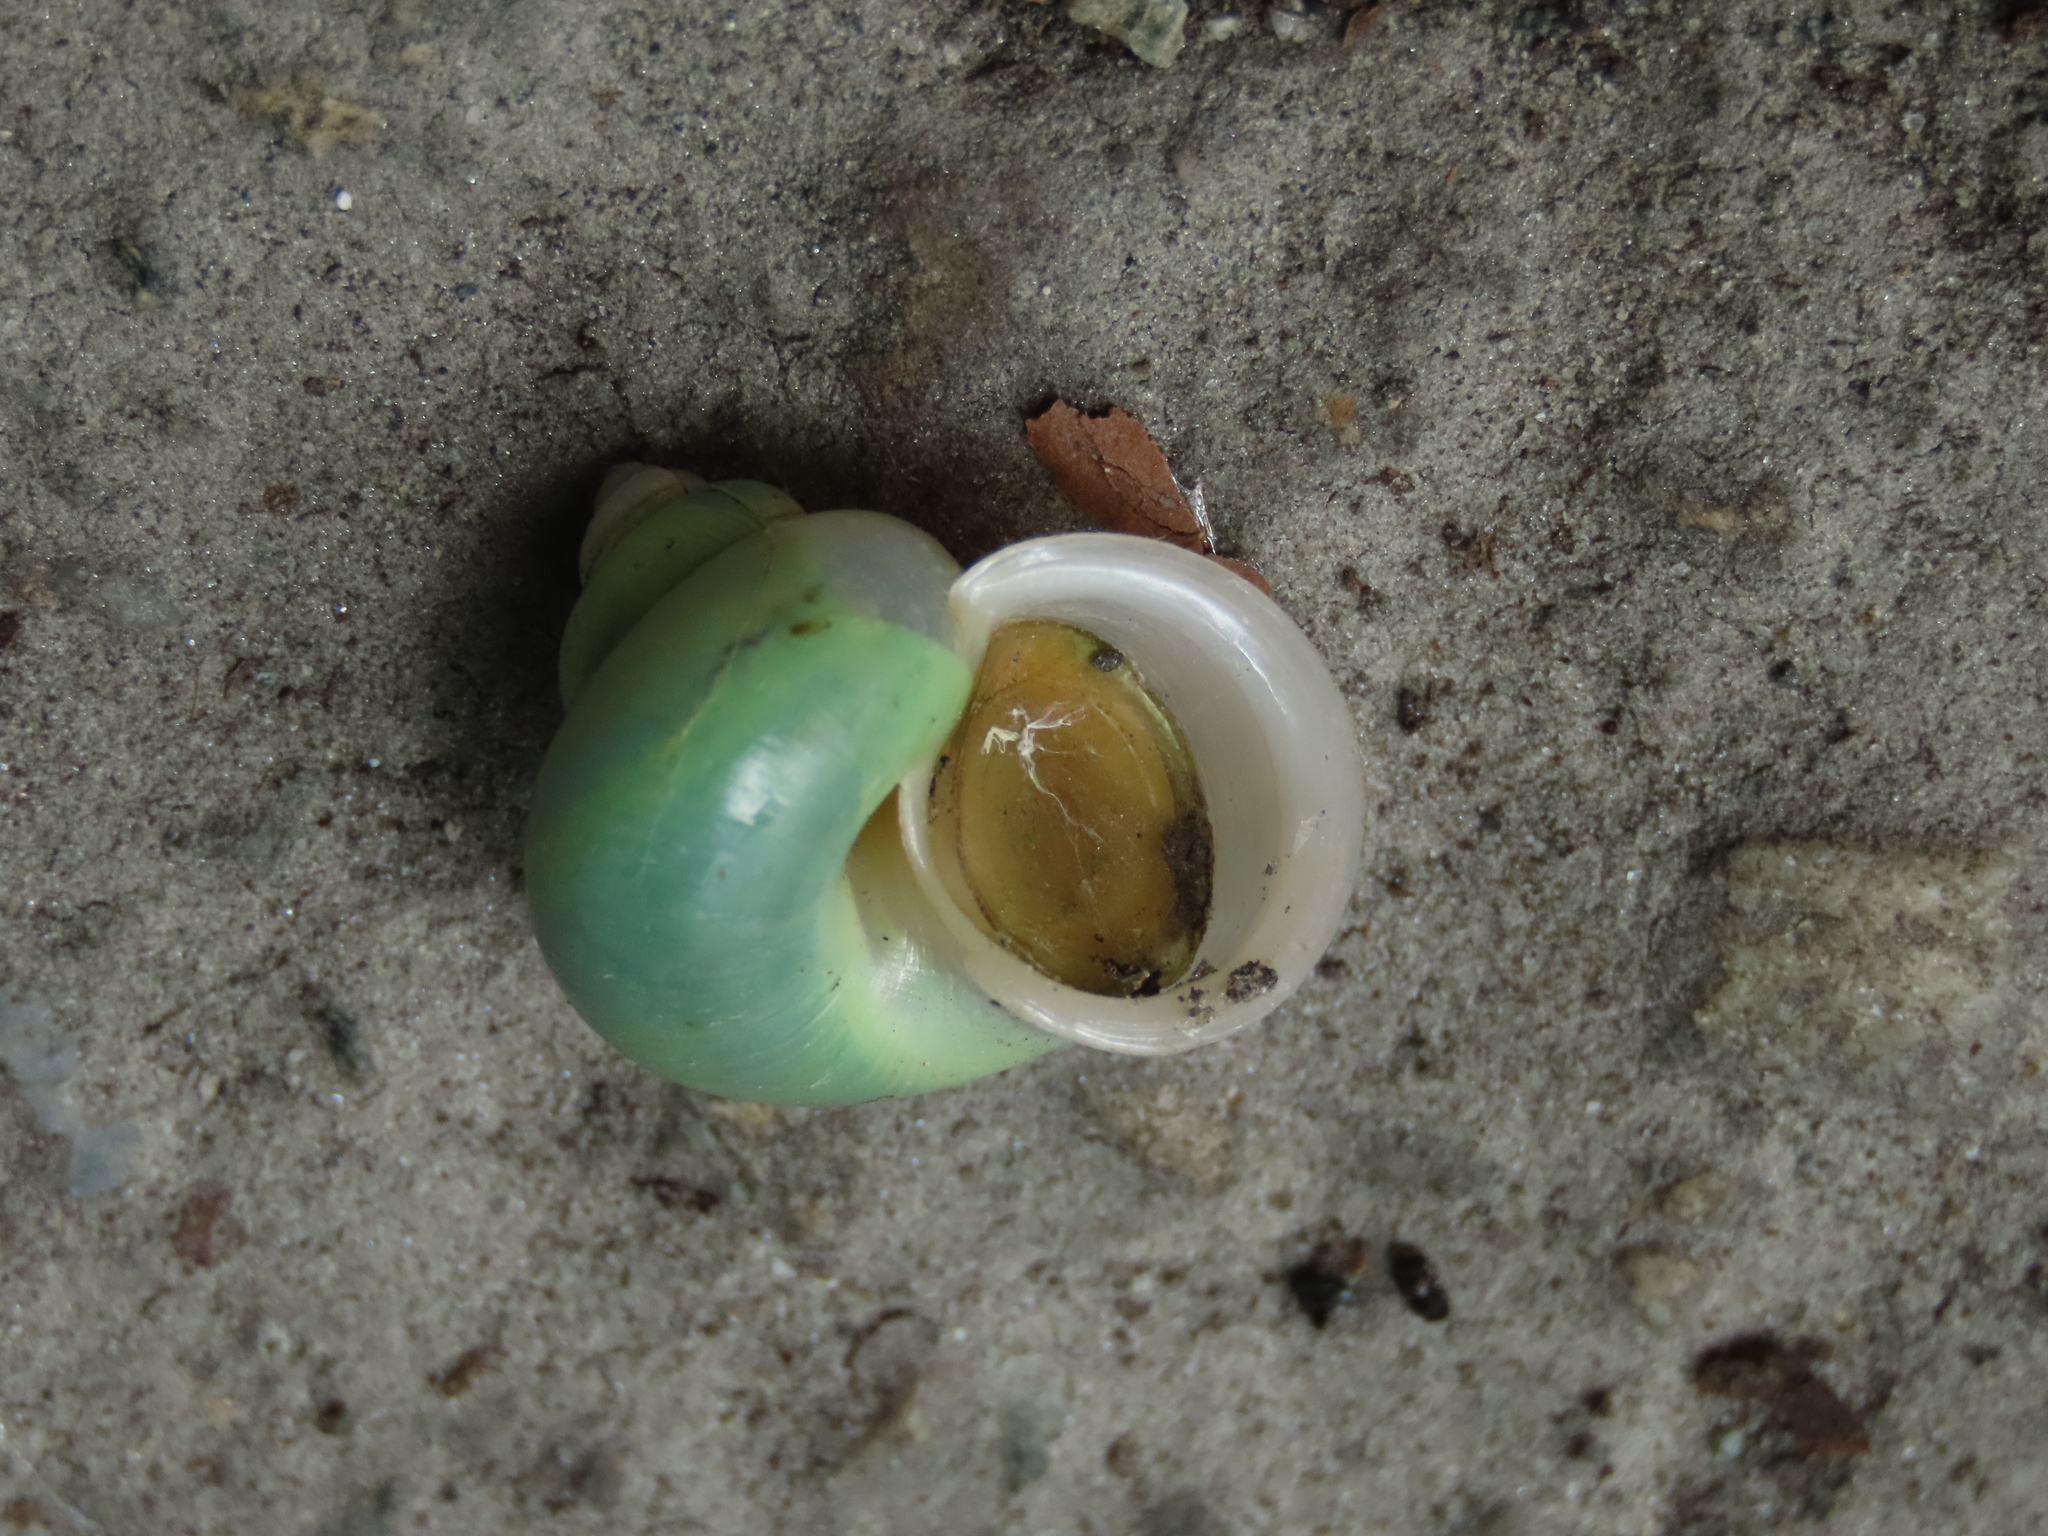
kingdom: Animalia
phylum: Mollusca
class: Gastropoda
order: Architaenioglossa
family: Cyclophoridae
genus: Leptopoma
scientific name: Leptopoma nitidum
